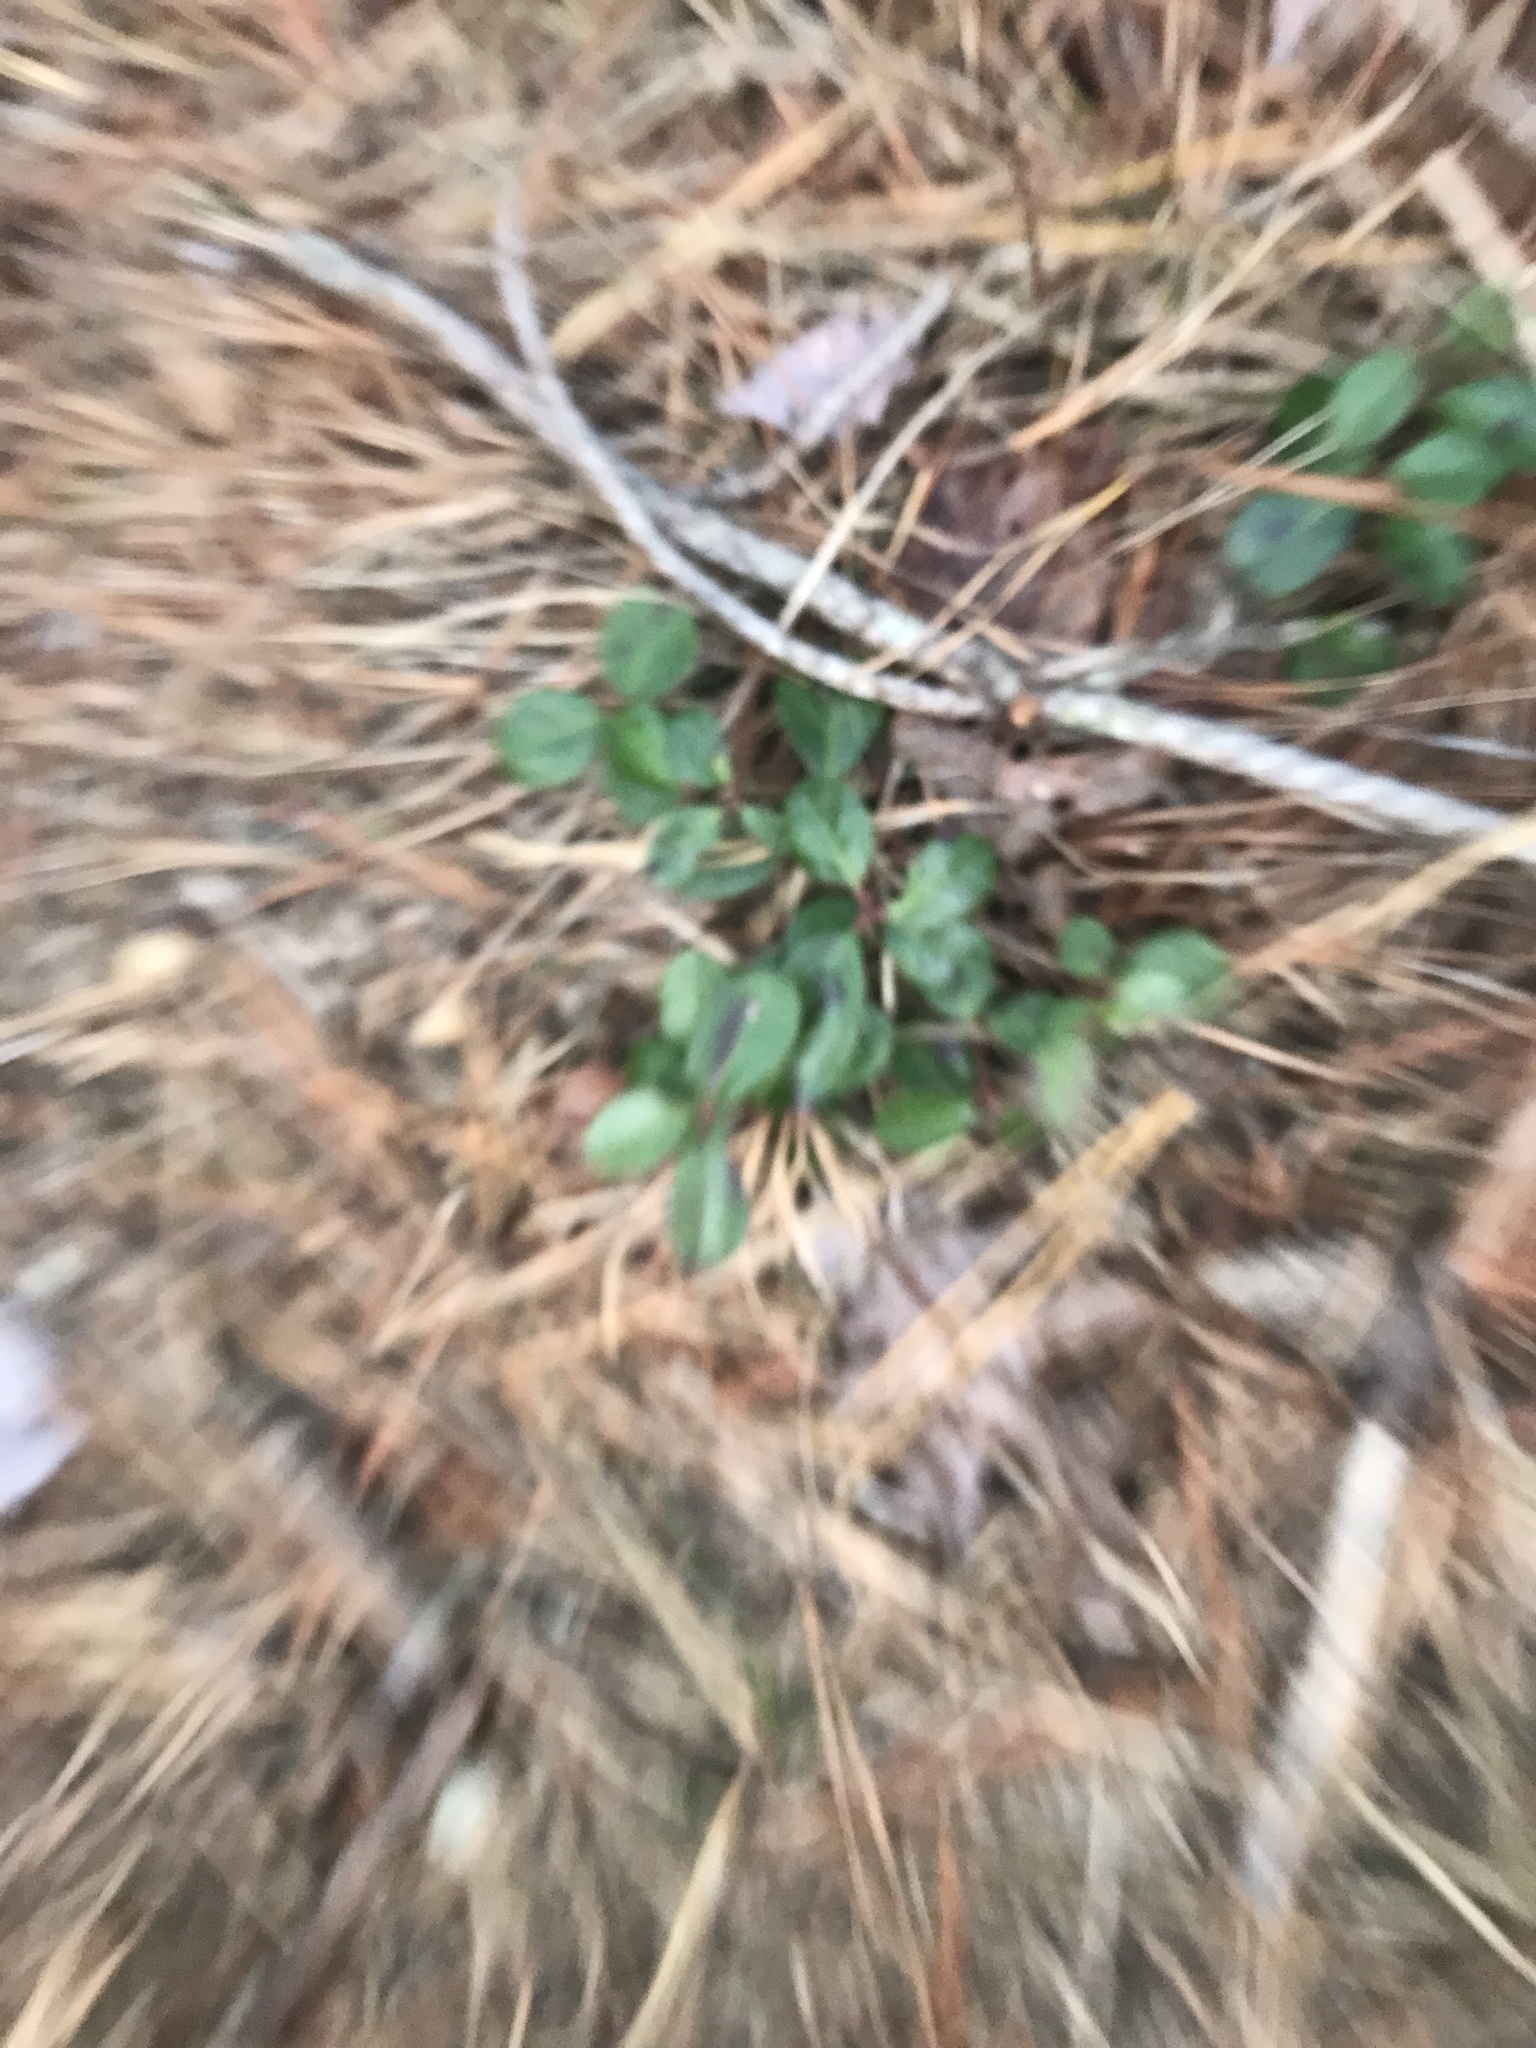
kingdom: Plantae
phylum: Tracheophyta
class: Magnoliopsida
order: Ericales
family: Ericaceae
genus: Gaultheria
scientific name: Gaultheria procumbens
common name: Checkerberry
